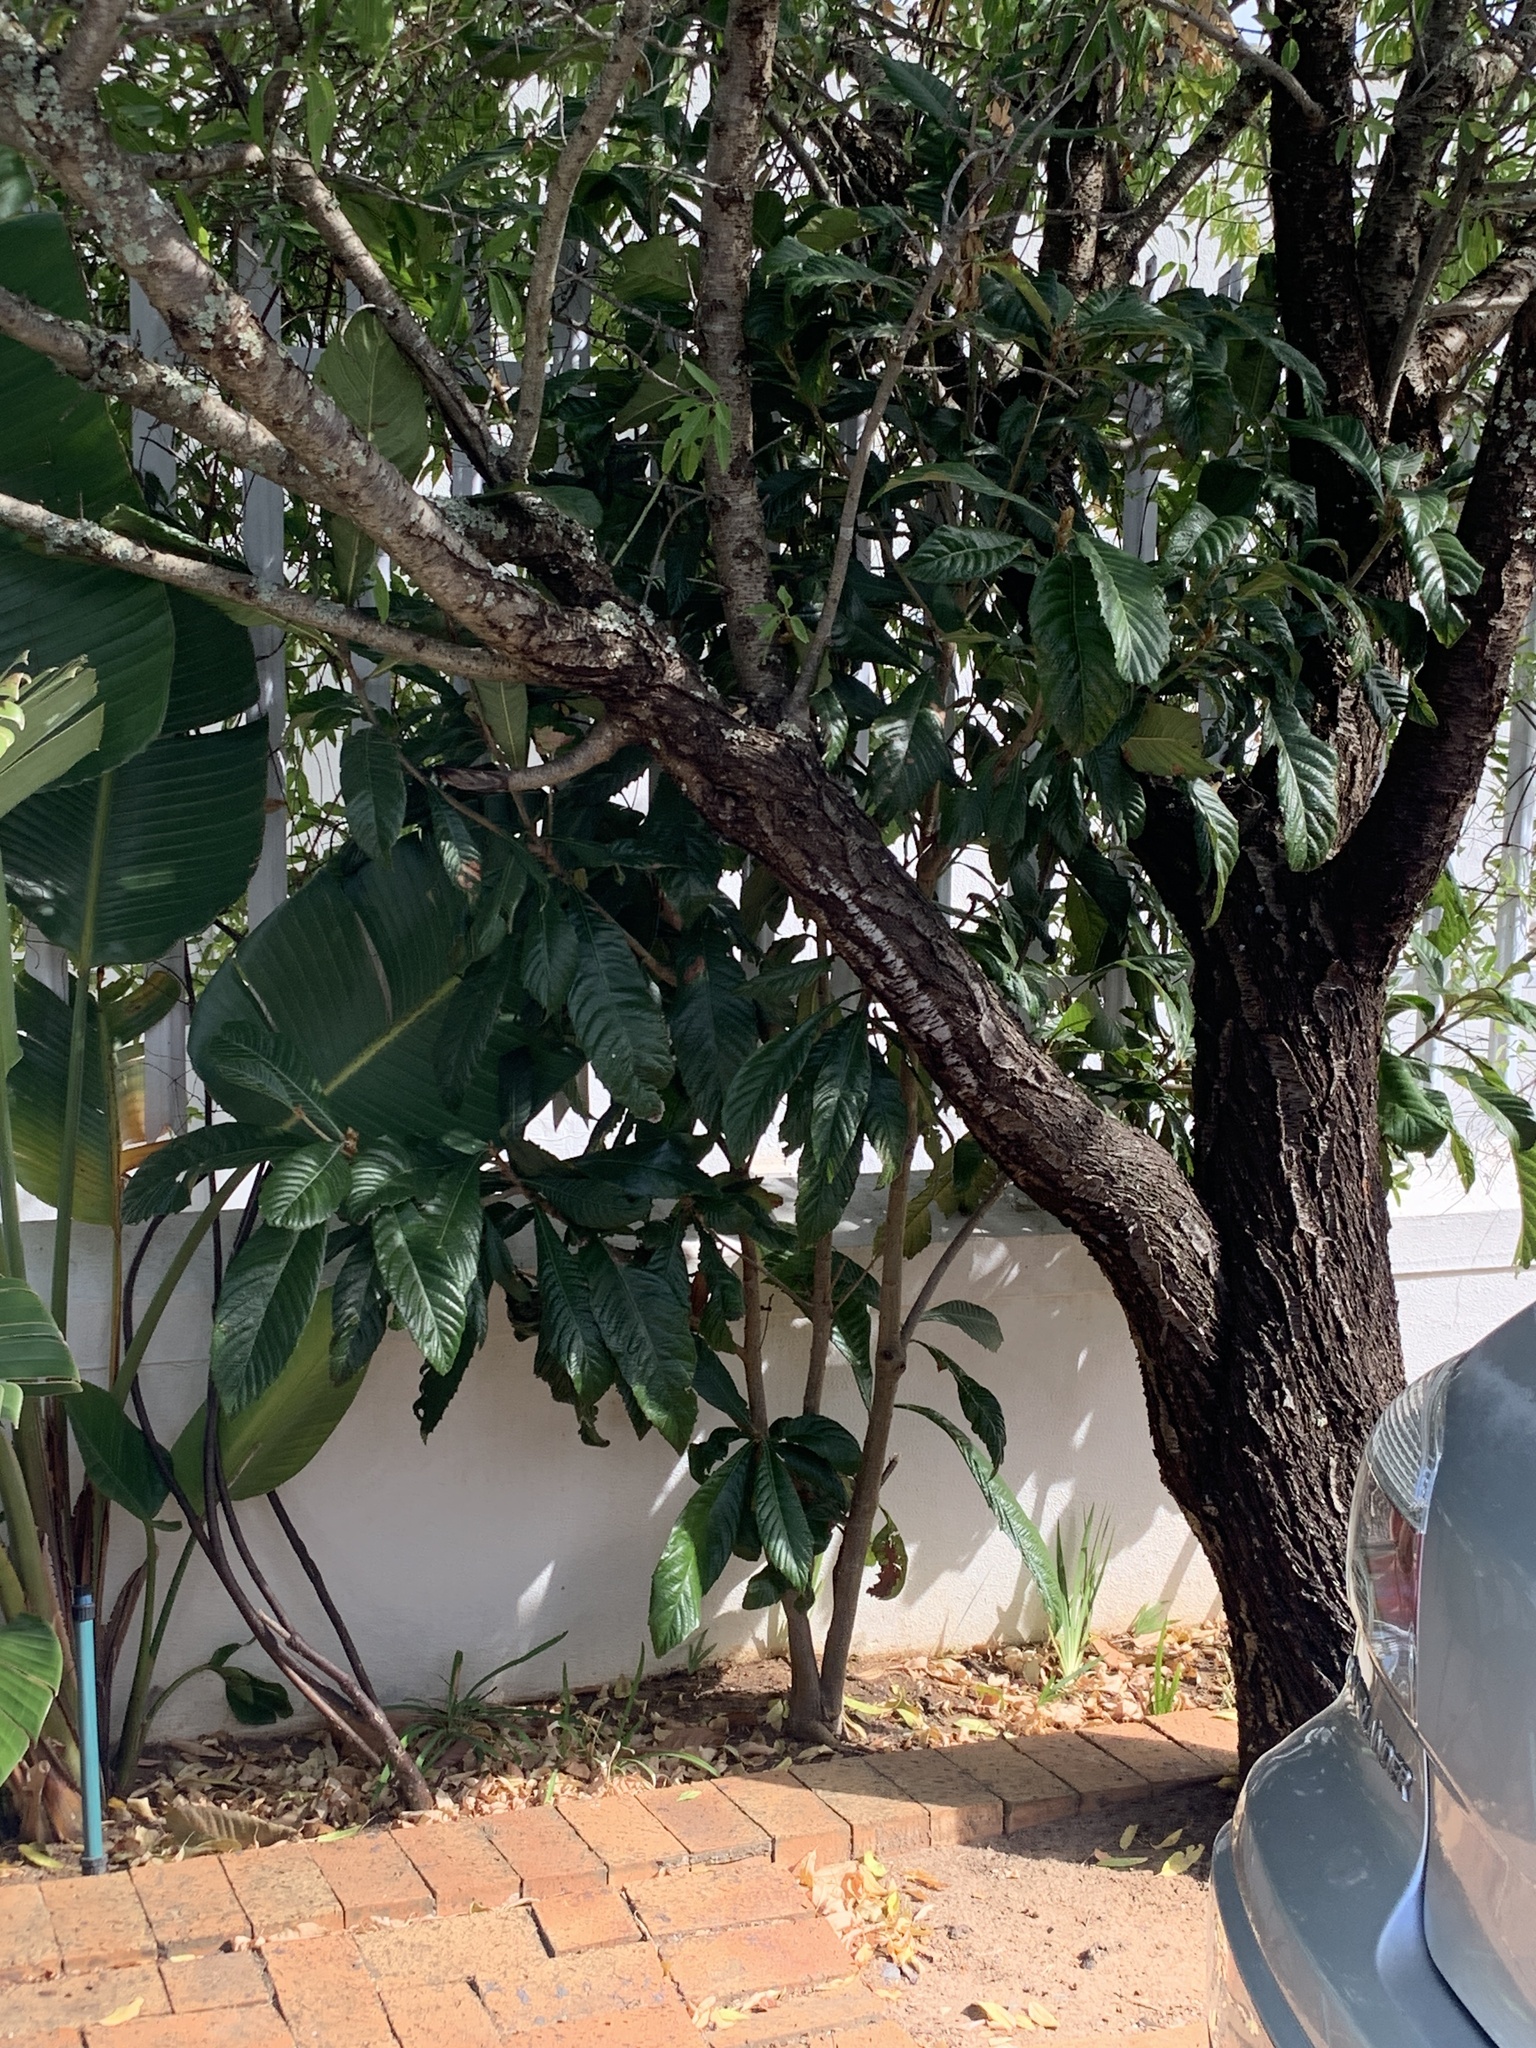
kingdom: Plantae
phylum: Tracheophyta
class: Magnoliopsida
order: Rosales
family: Rosaceae
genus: Rhaphiolepis
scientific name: Rhaphiolepis bibas
